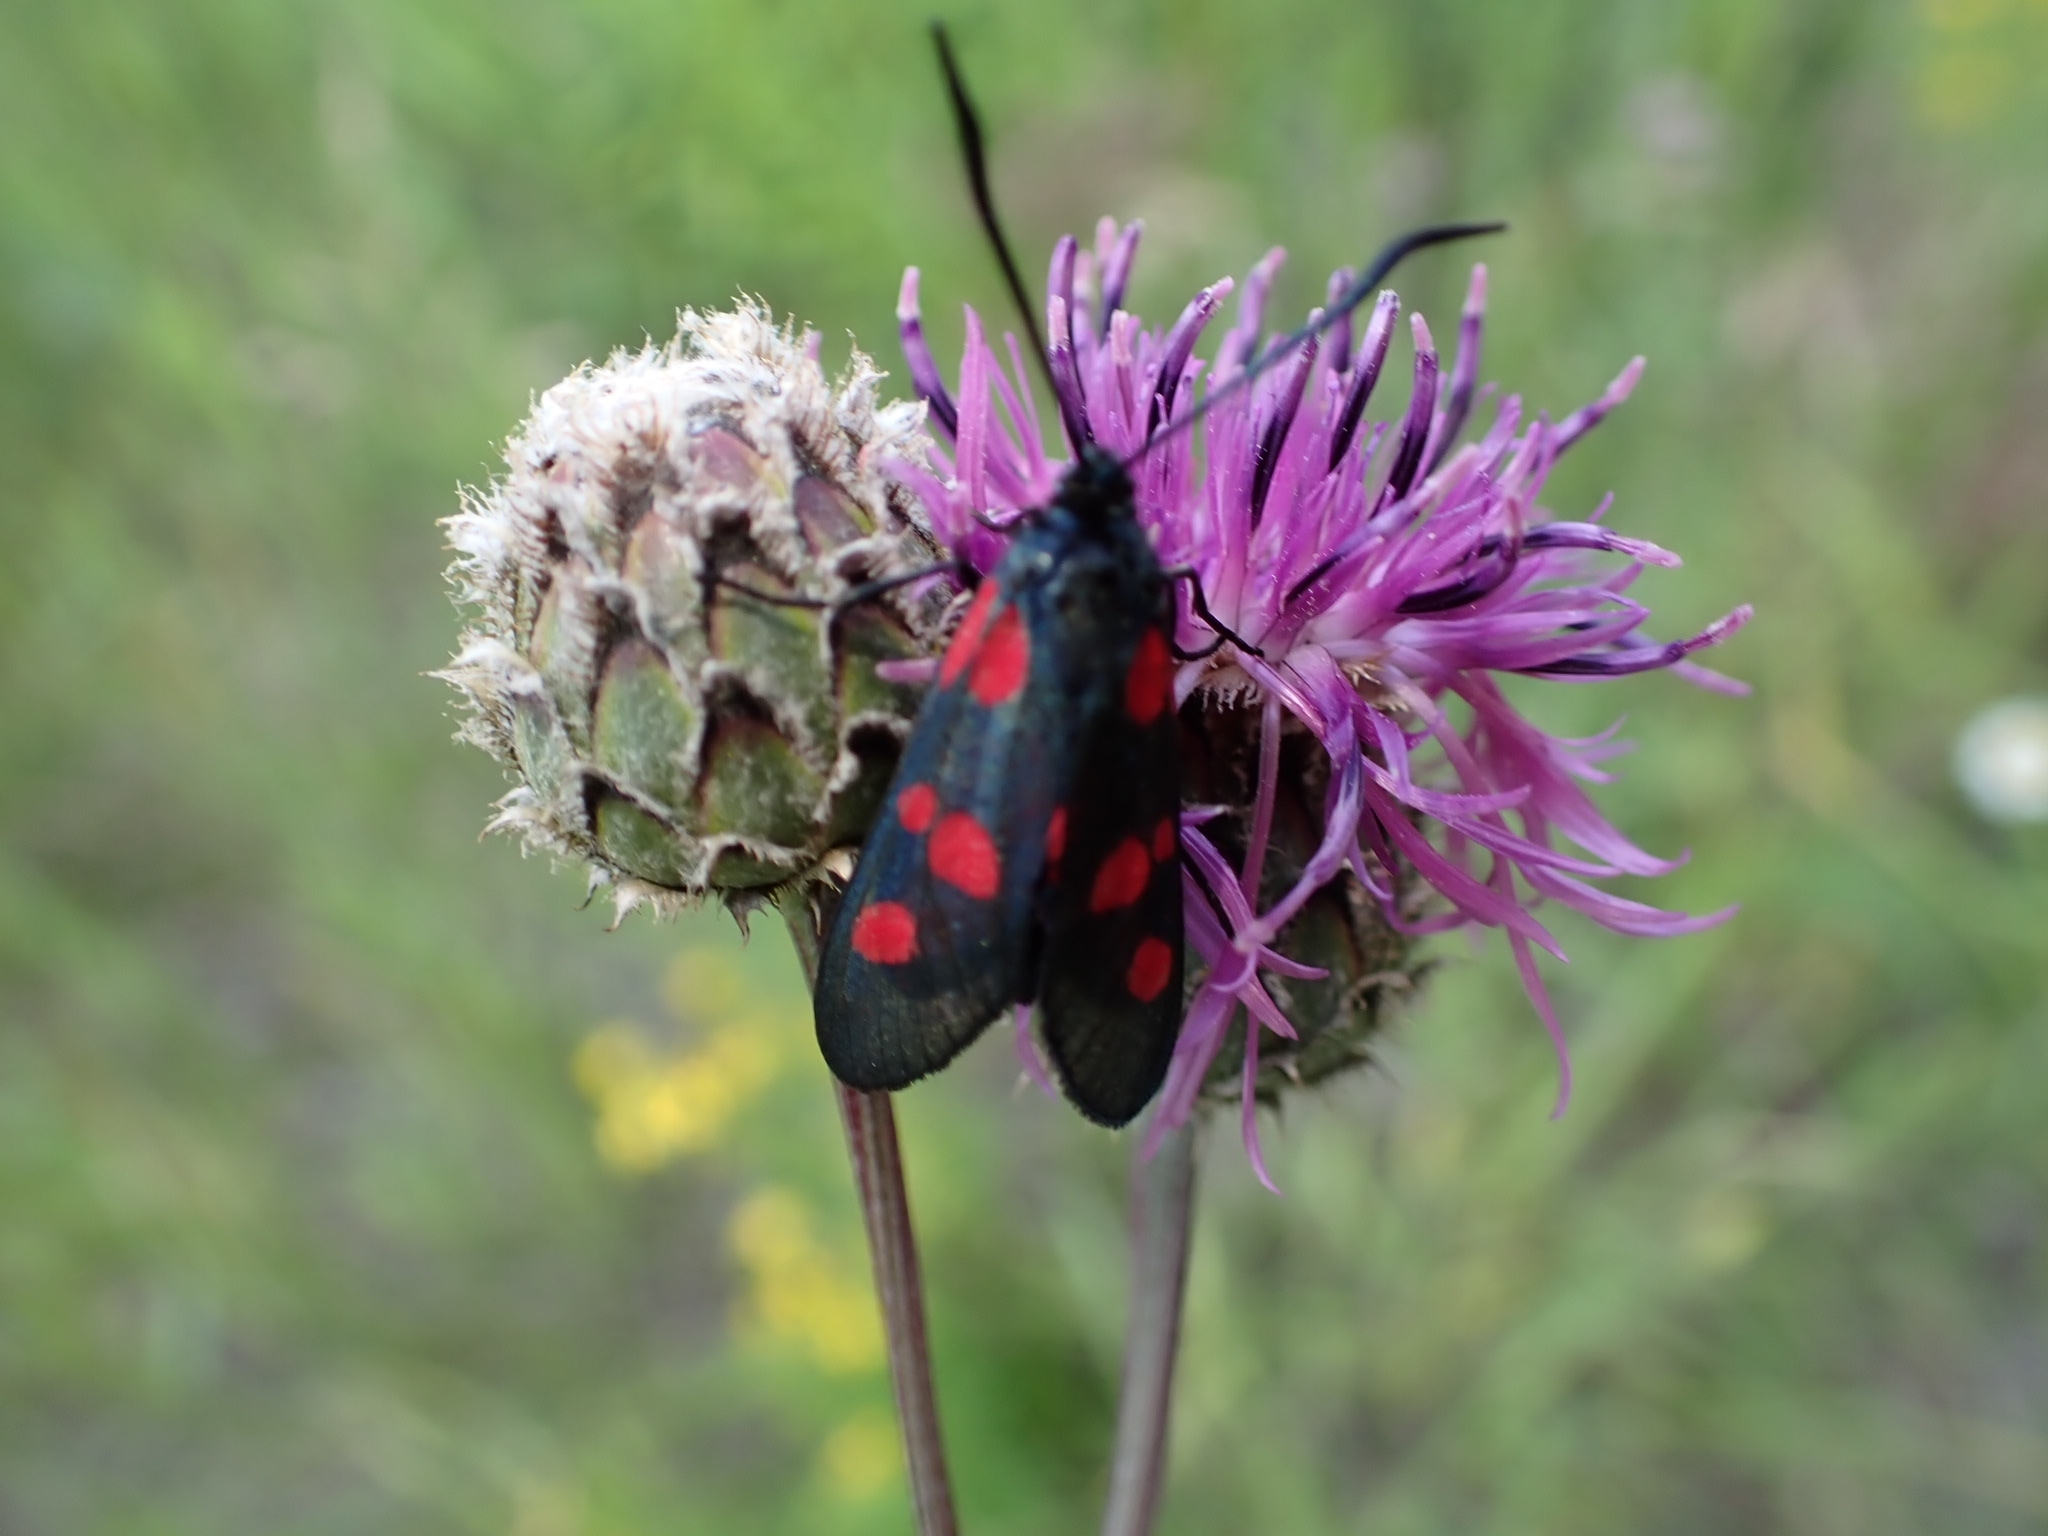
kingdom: Animalia
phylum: Arthropoda
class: Insecta
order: Lepidoptera
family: Zygaenidae
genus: Zygaena
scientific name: Zygaena lonicerae
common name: Narrow-bordered five-spot burnet
